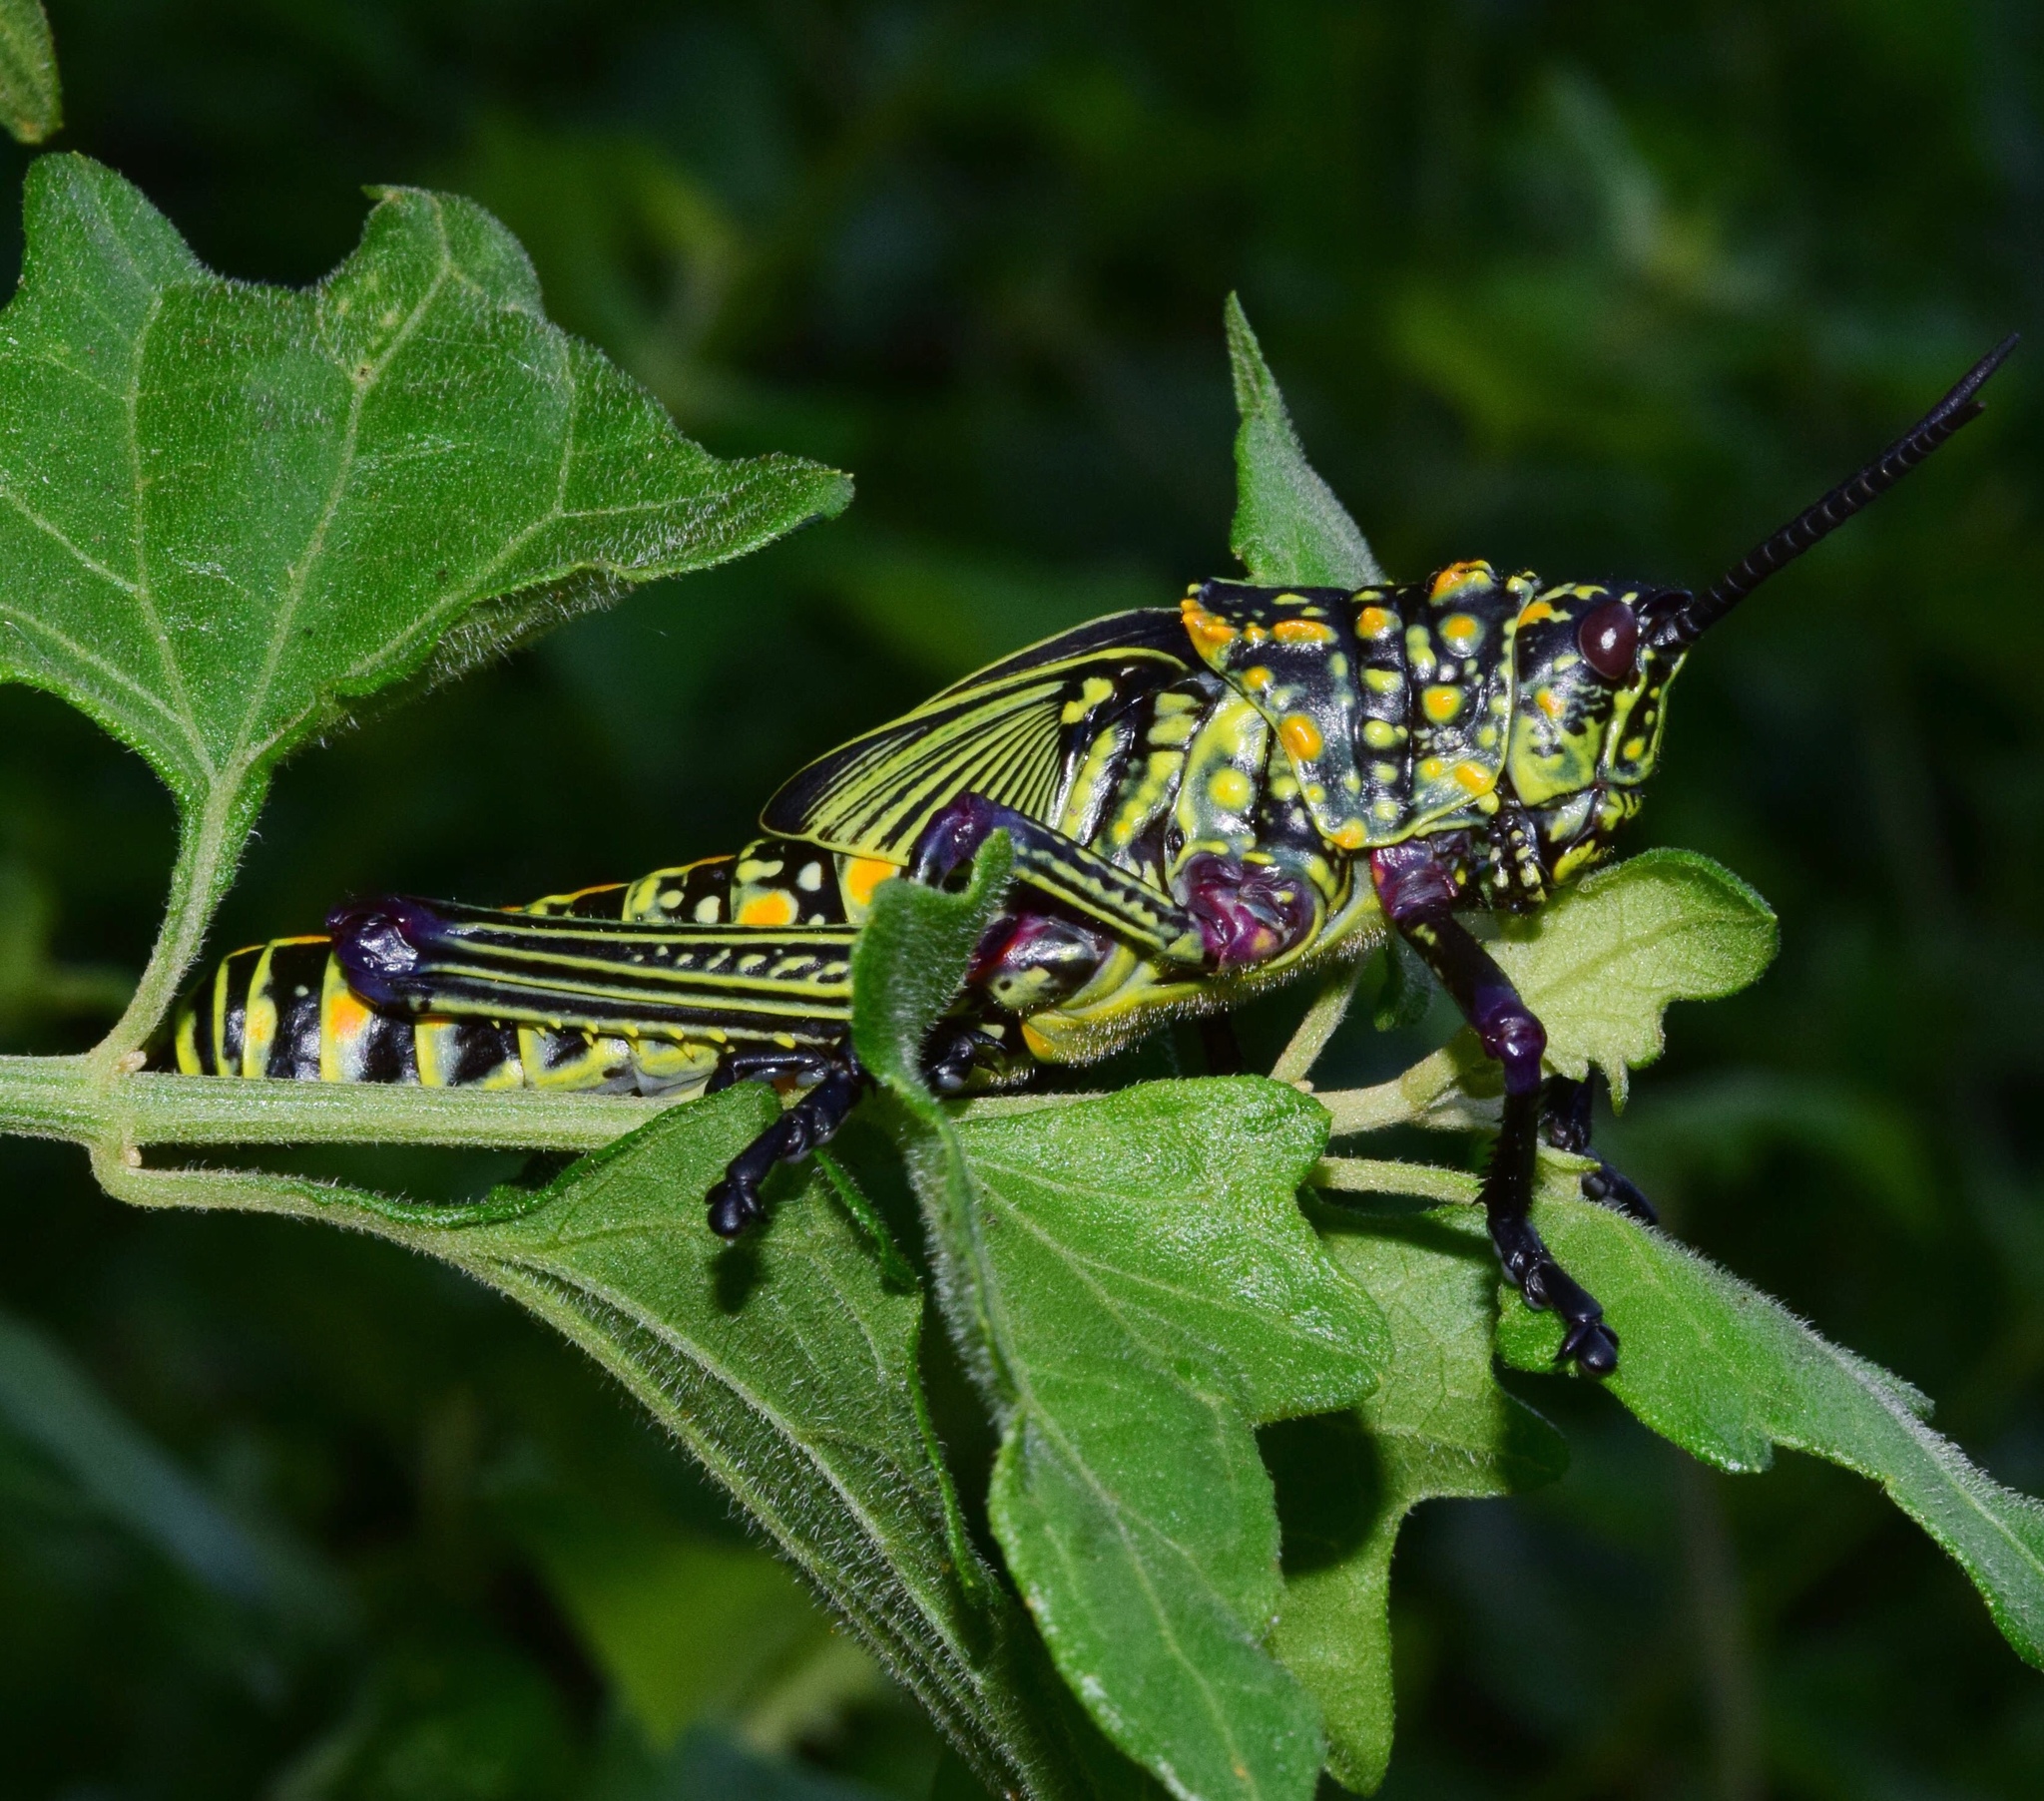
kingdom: Animalia
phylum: Arthropoda
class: Insecta
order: Orthoptera
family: Pyrgomorphidae
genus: Phymateus
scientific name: Phymateus viridipes
